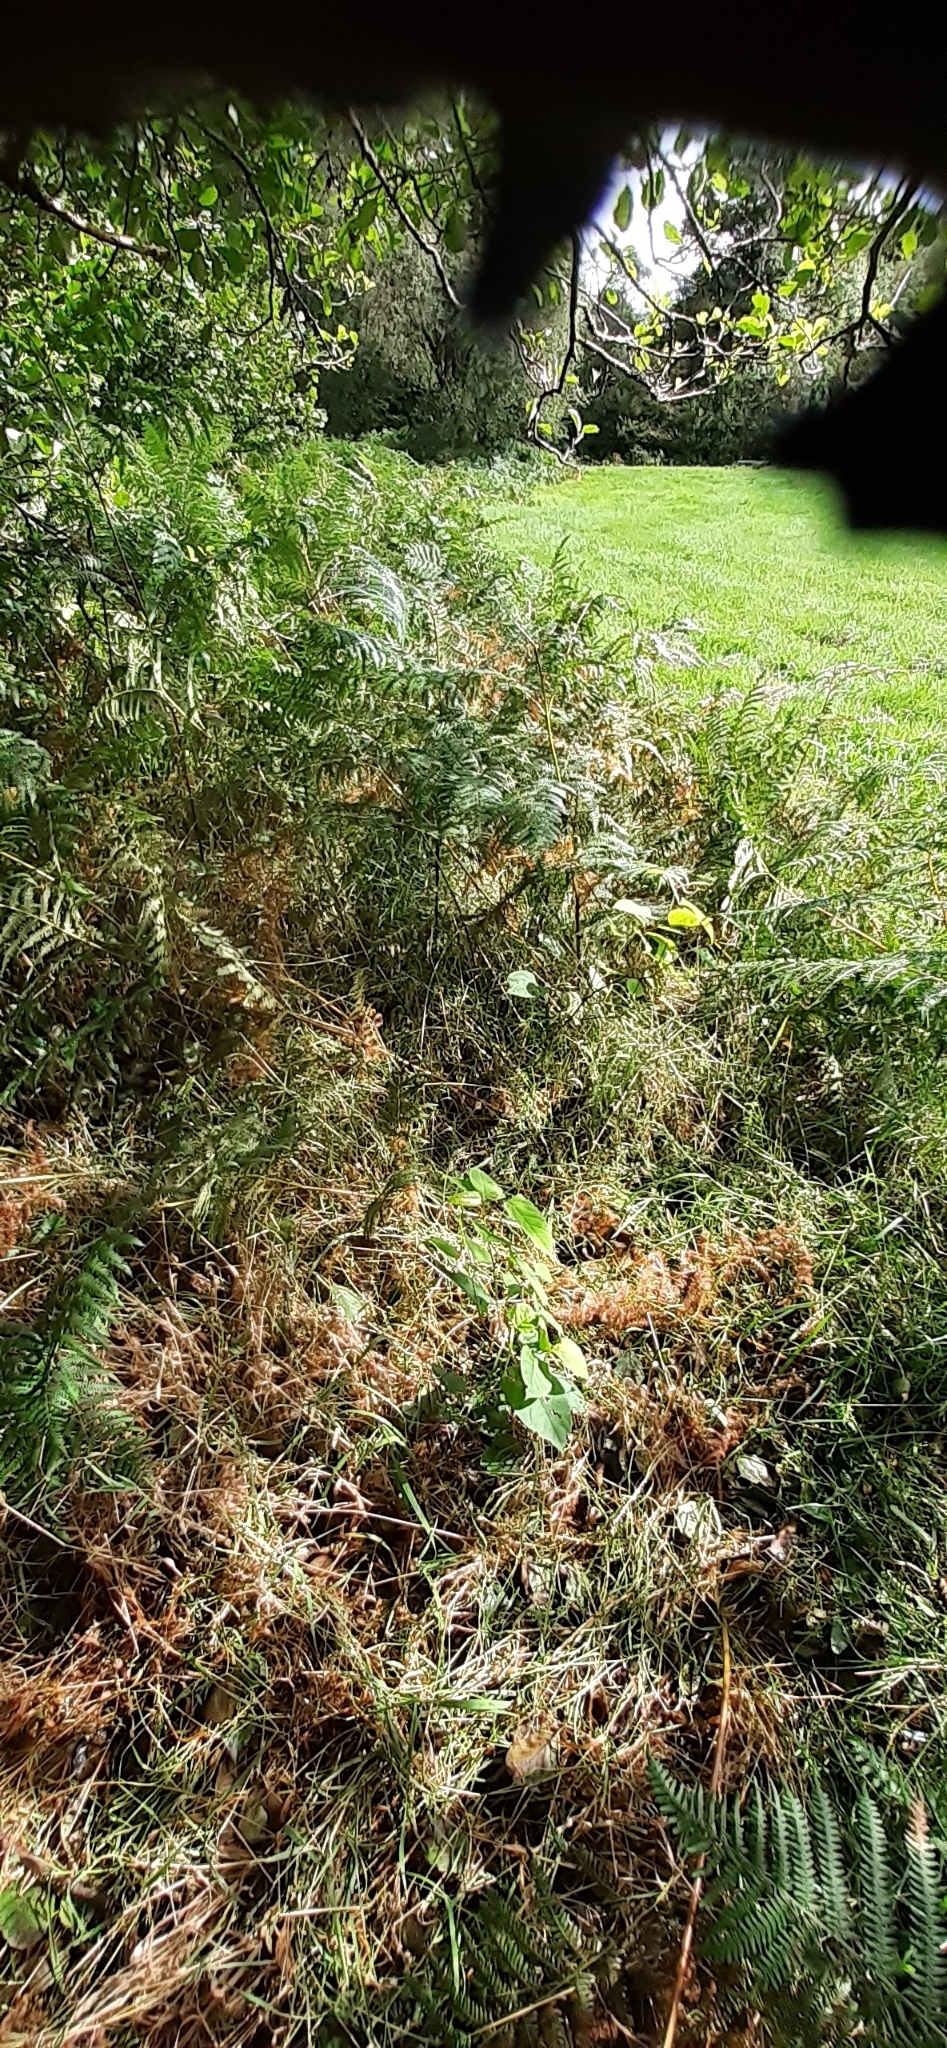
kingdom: Plantae
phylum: Tracheophyta
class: Magnoliopsida
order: Caryophyllales
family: Polygonaceae
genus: Reynoutria
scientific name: Reynoutria japonica
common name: Japanese knotweed
